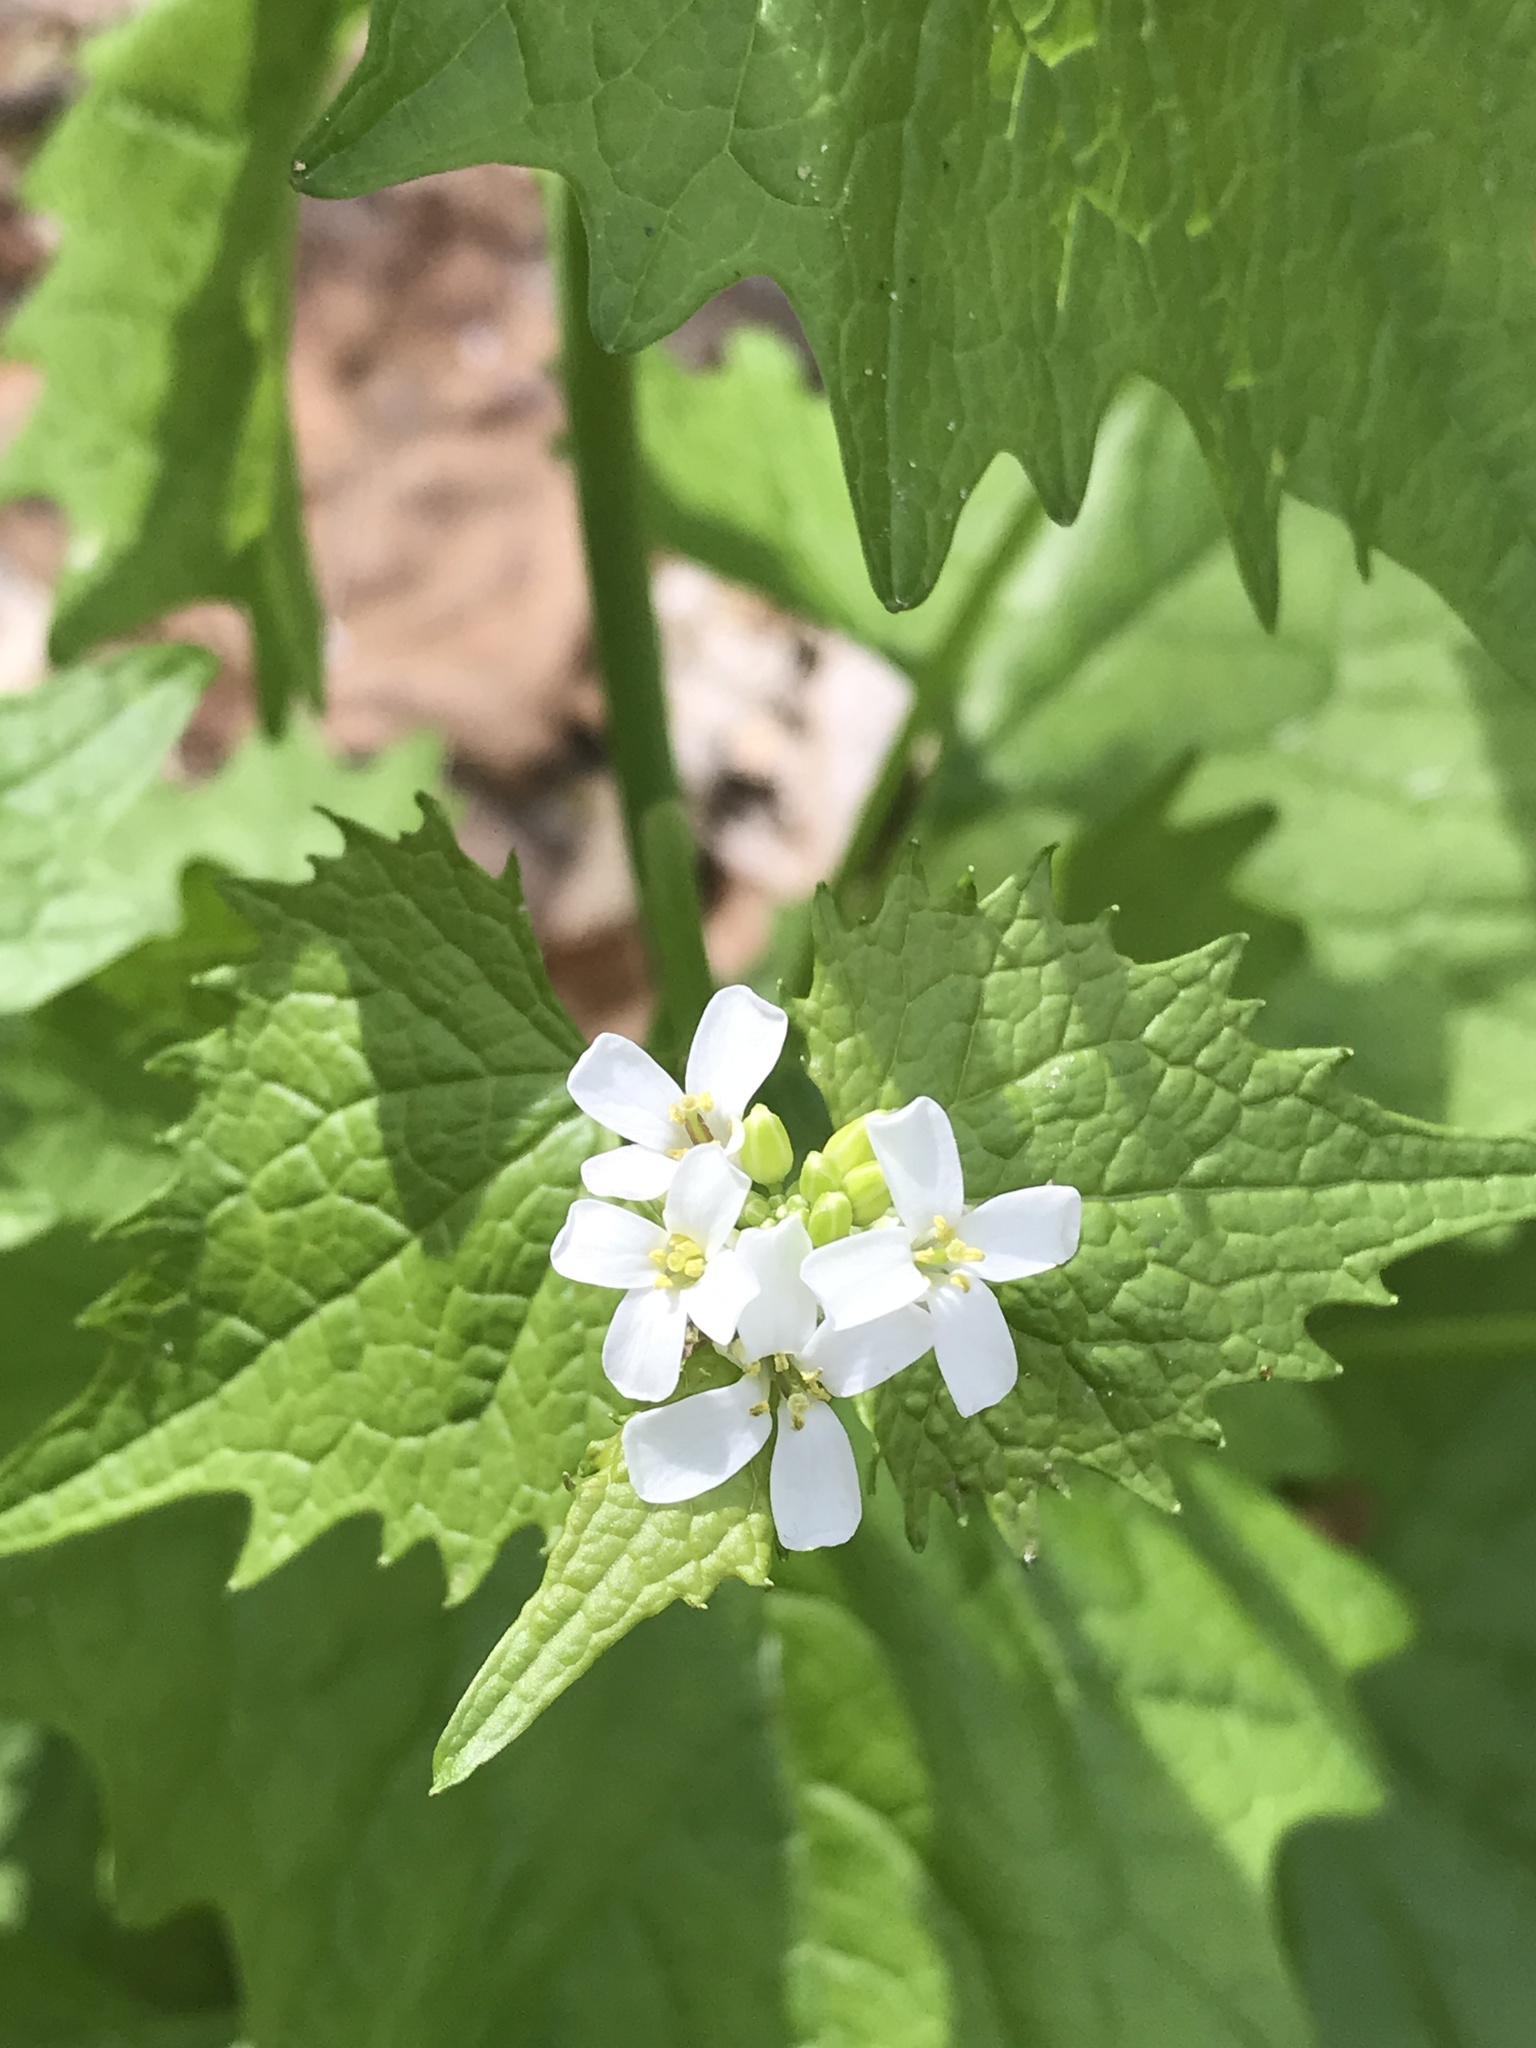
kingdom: Plantae
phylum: Tracheophyta
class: Magnoliopsida
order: Brassicales
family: Brassicaceae
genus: Alliaria
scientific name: Alliaria petiolata
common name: Garlic mustard
